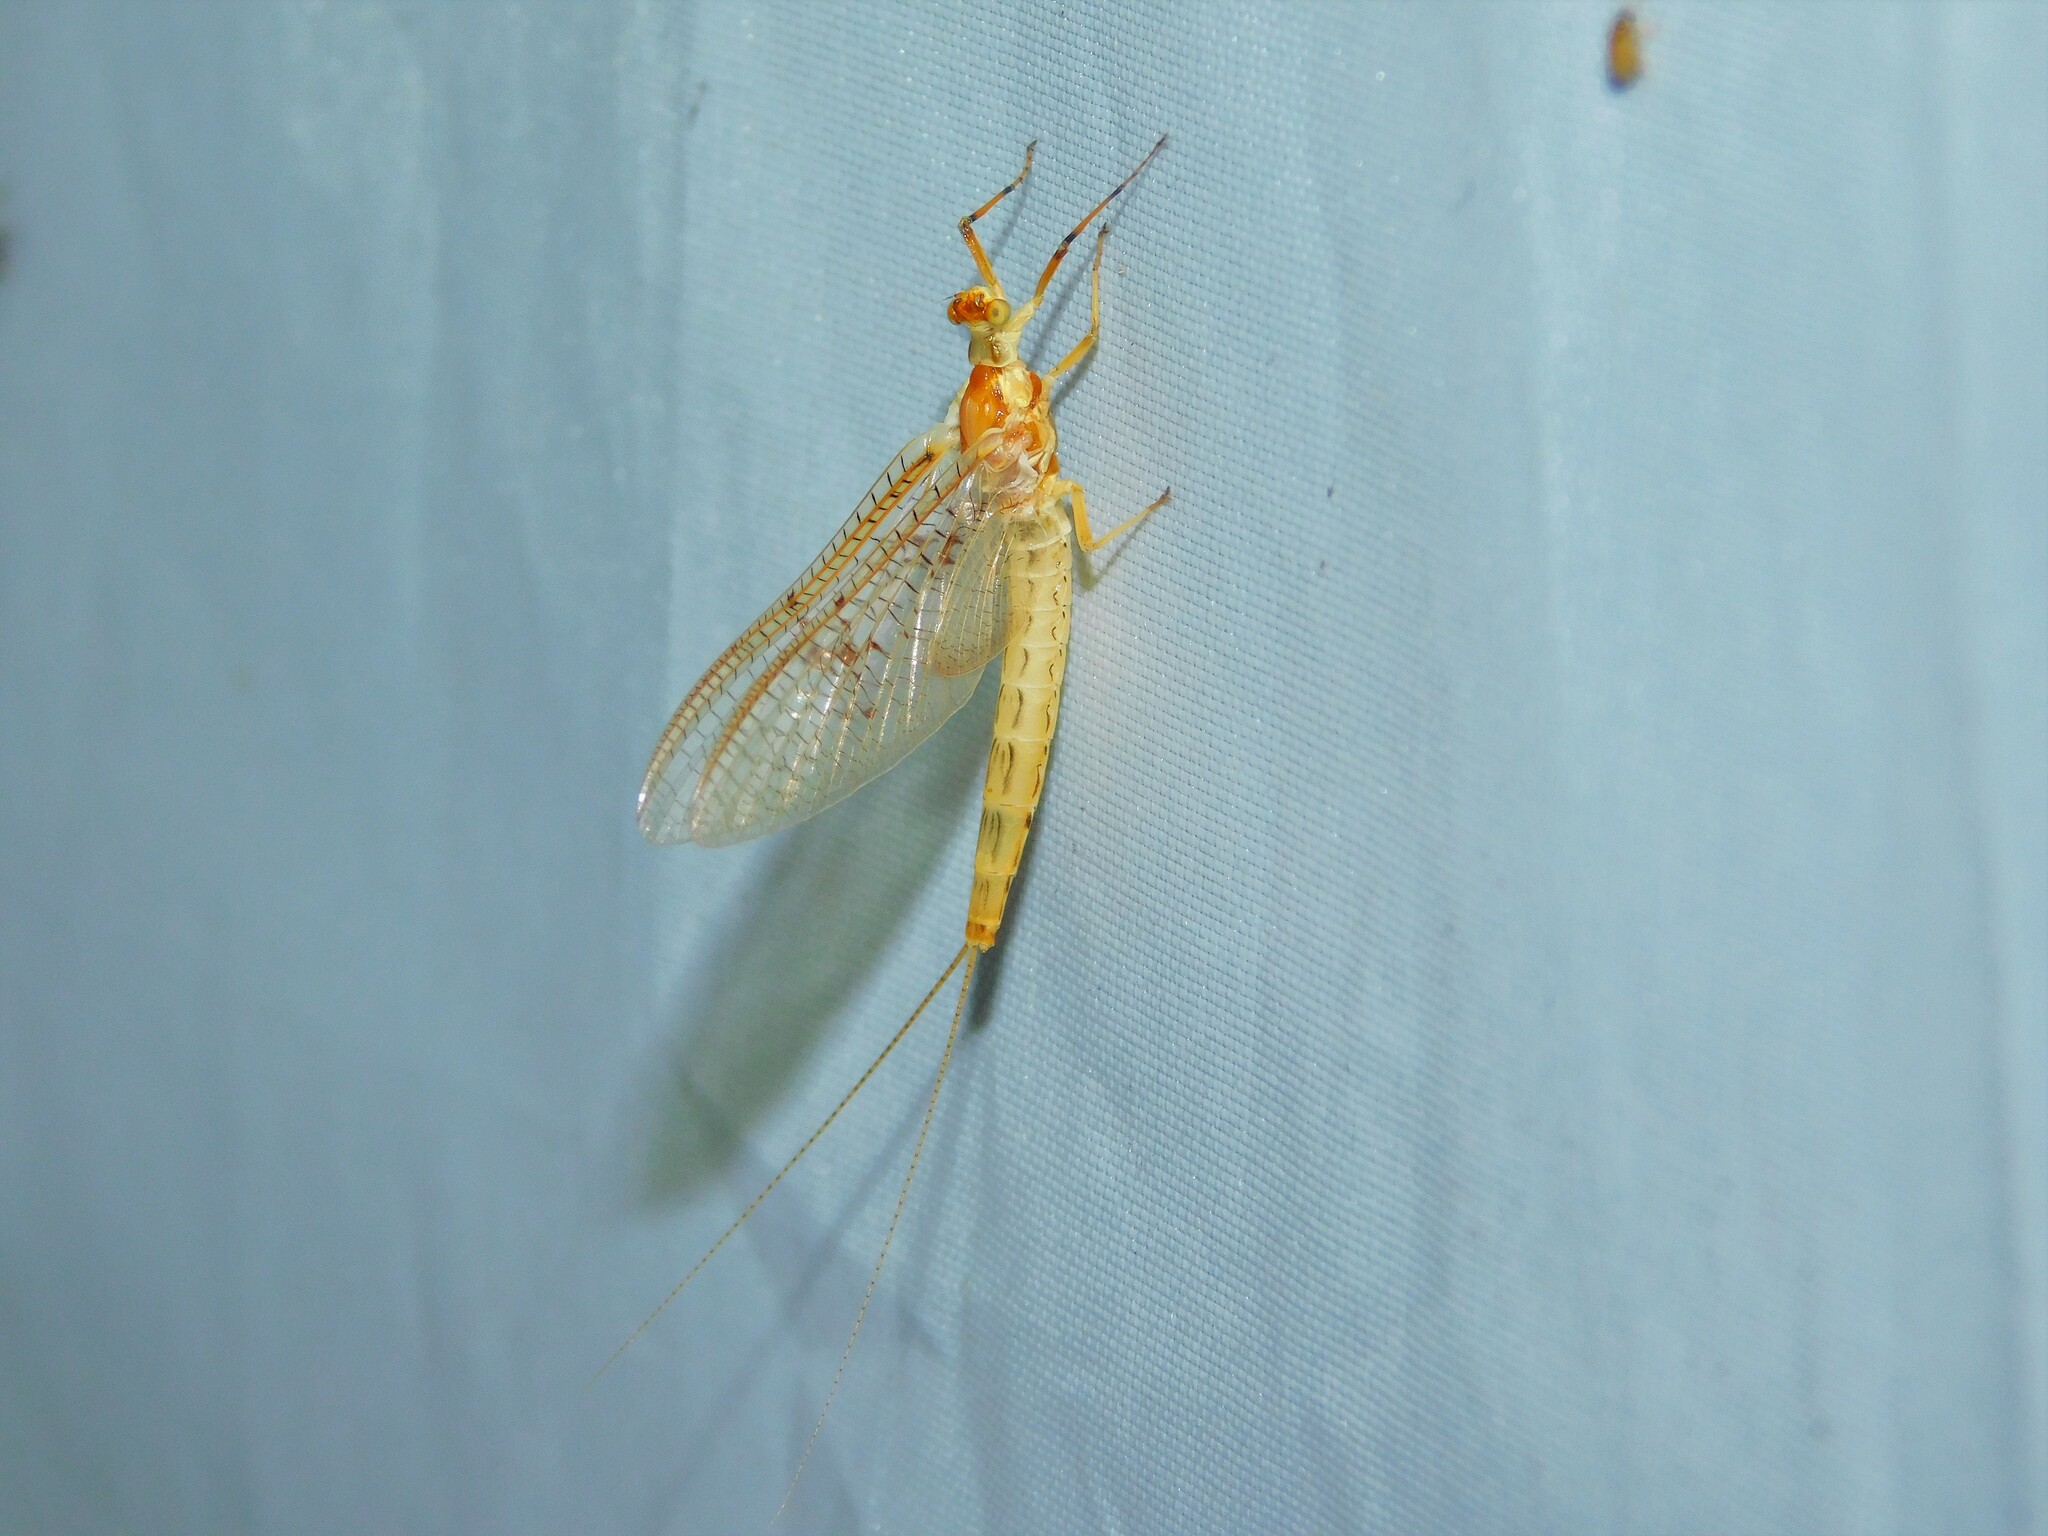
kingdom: Animalia
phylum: Arthropoda
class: Insecta
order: Ephemeroptera
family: Ephemeridae
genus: Ephemera
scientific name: Ephemera glaucops
